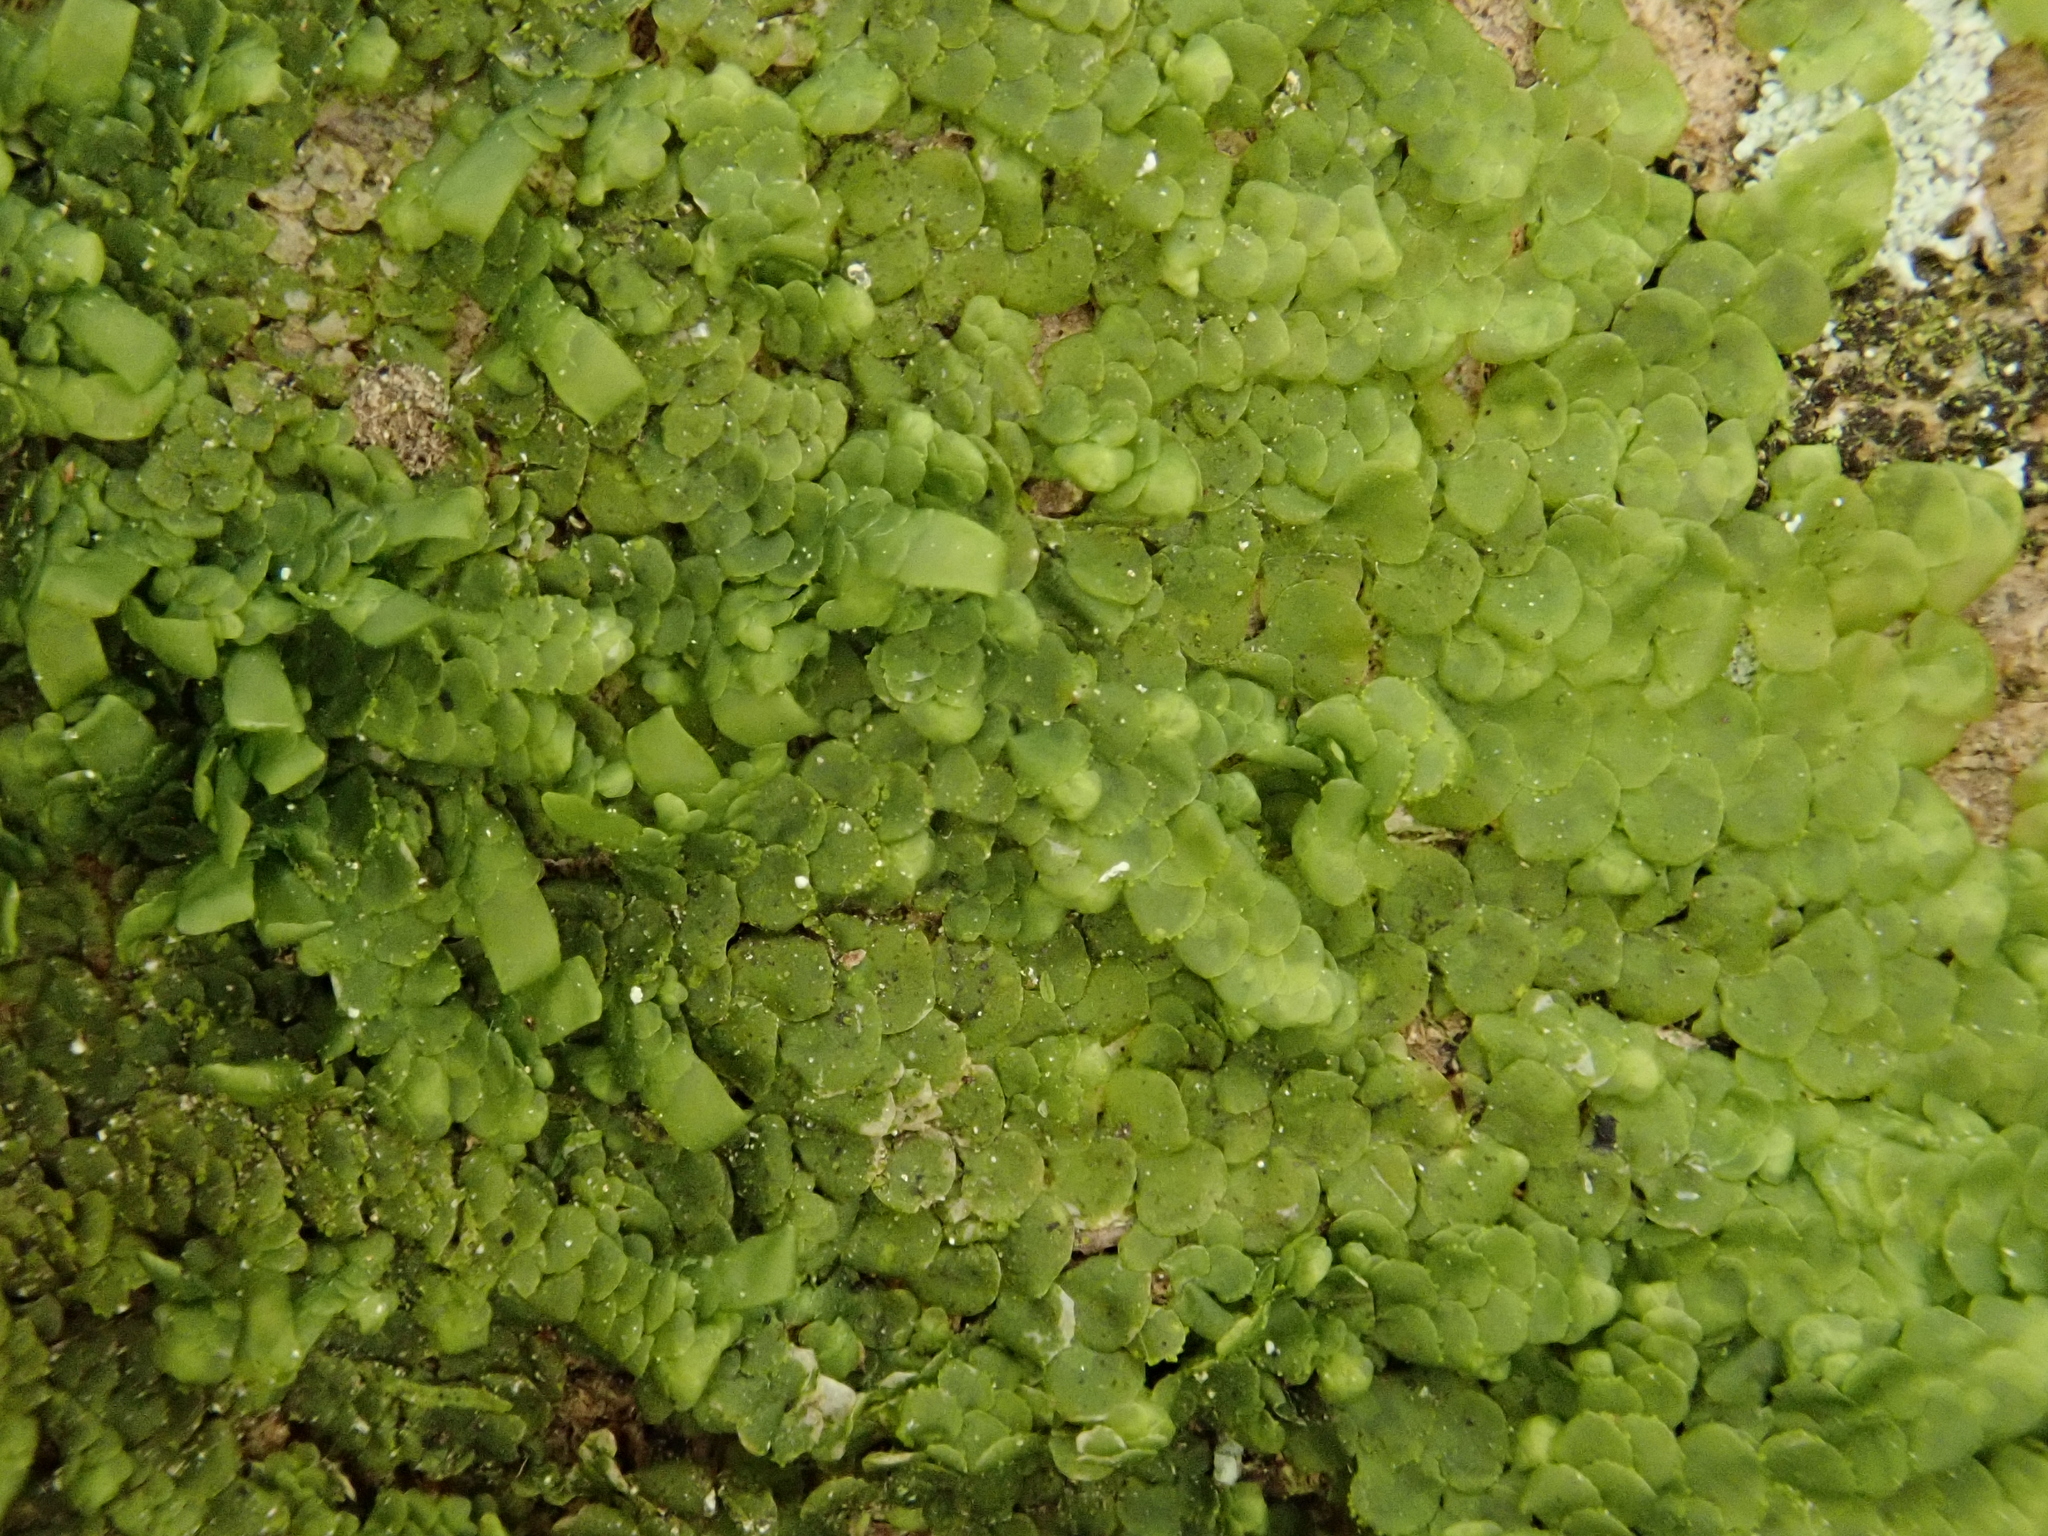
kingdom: Plantae
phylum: Marchantiophyta
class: Jungermanniopsida
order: Porellales
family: Radulaceae
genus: Radula
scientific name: Radula complanata
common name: Flat-leaved scalewort
